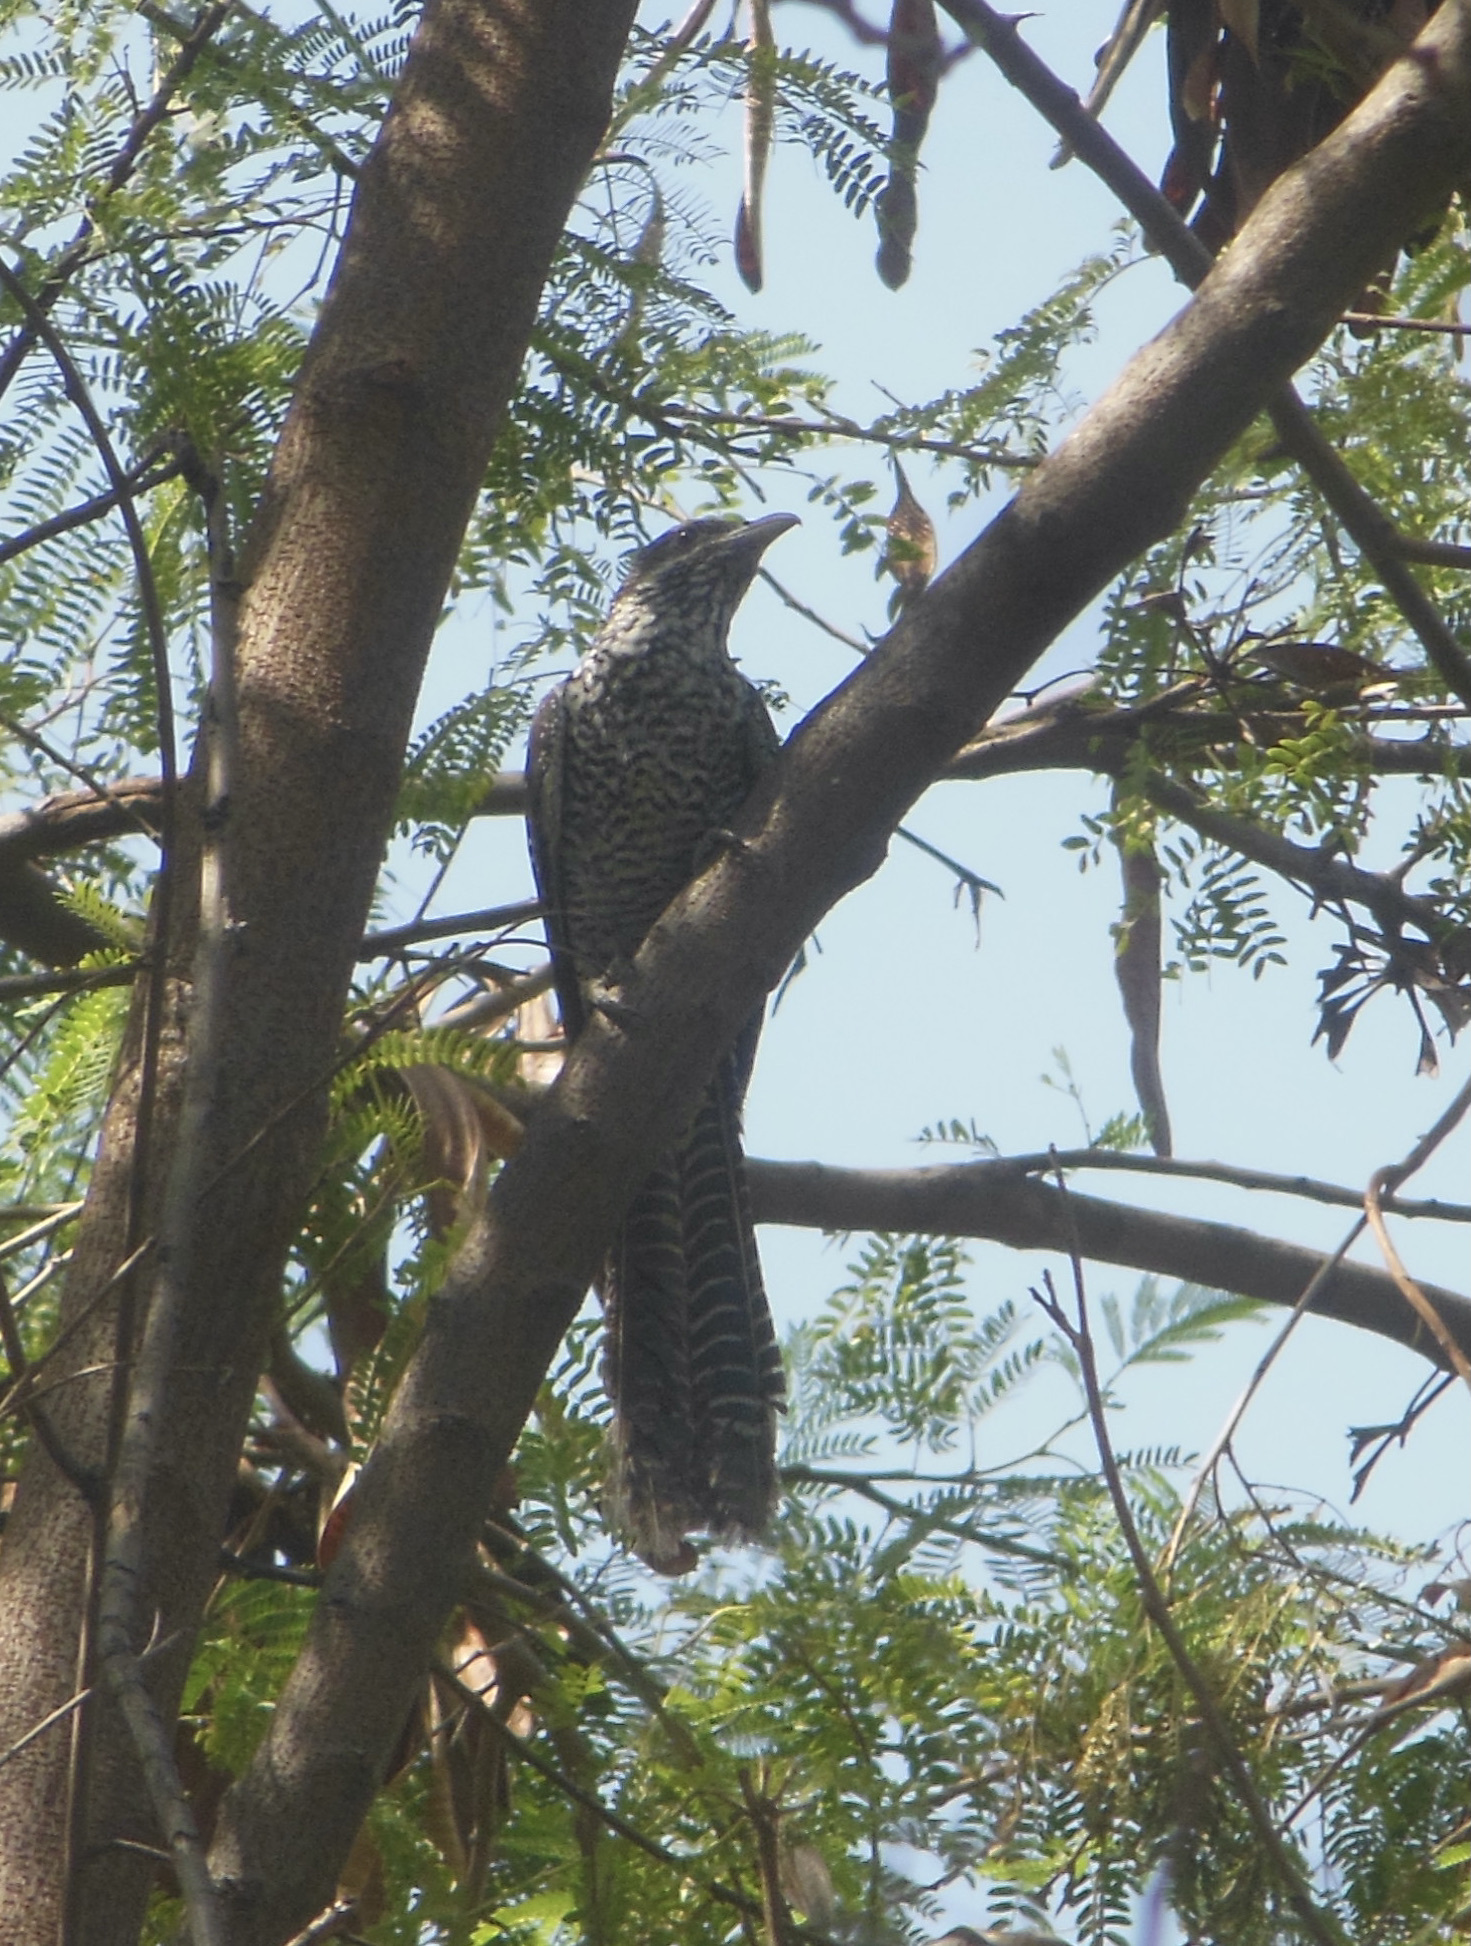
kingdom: Animalia
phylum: Chordata
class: Aves
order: Cuculiformes
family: Cuculidae
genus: Eudynamys
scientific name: Eudynamys scolopaceus
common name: Asian koel
